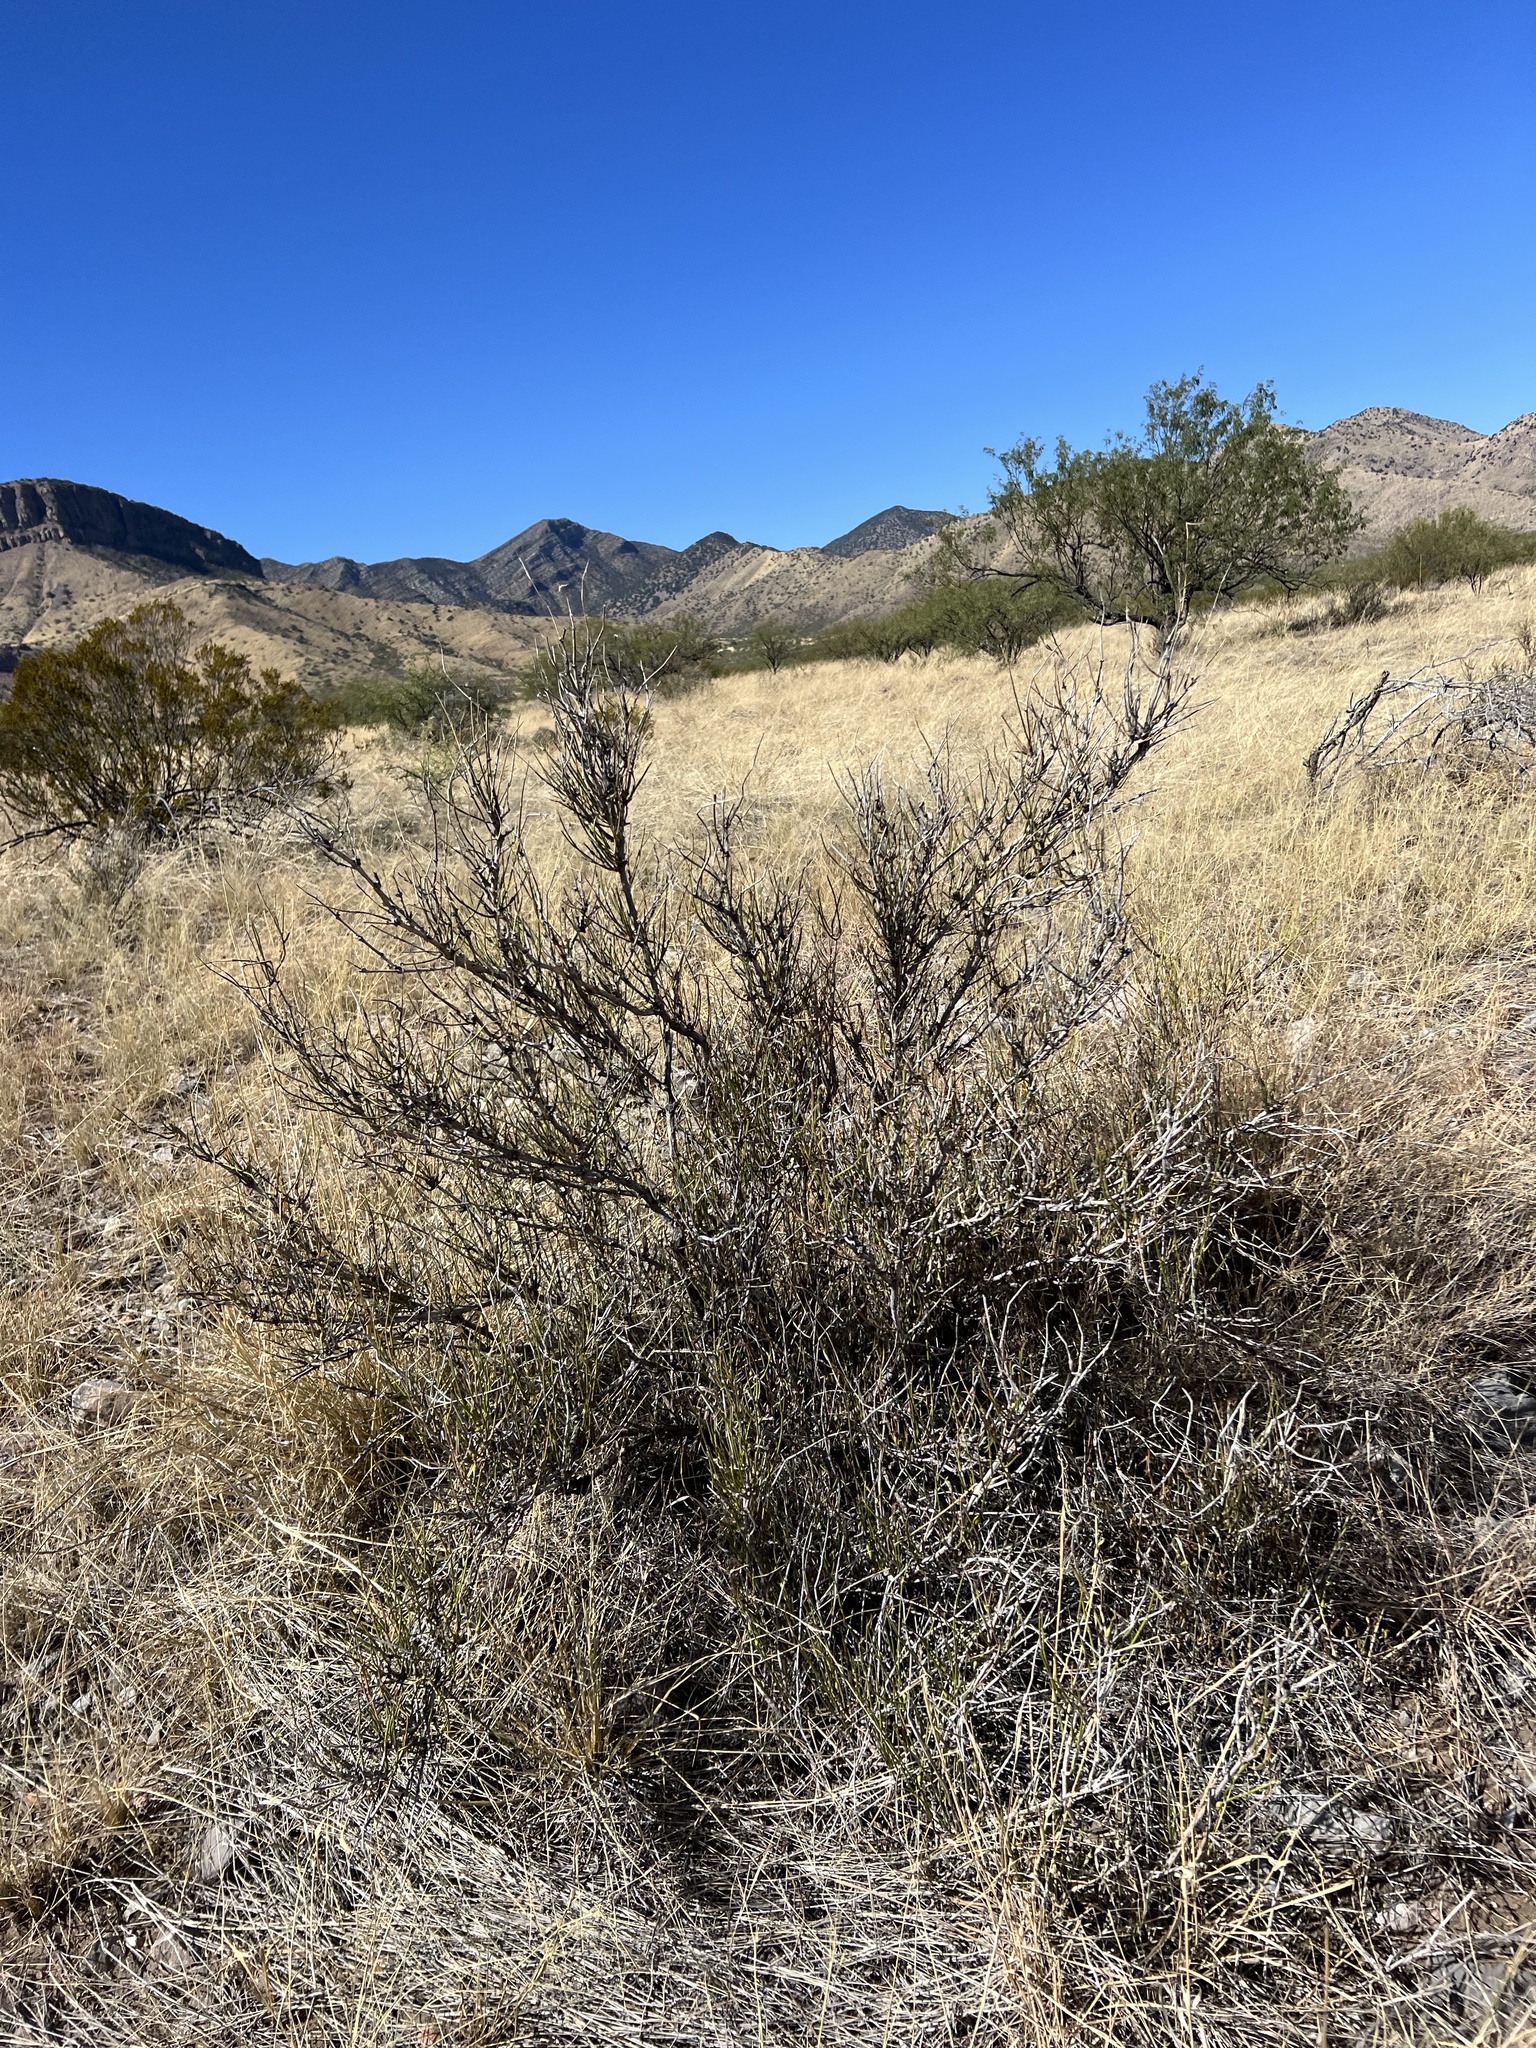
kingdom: Plantae
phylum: Tracheophyta
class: Gnetopsida
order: Ephedrales
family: Ephedraceae
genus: Ephedra
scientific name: Ephedra trifurca
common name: Mexican-tea
